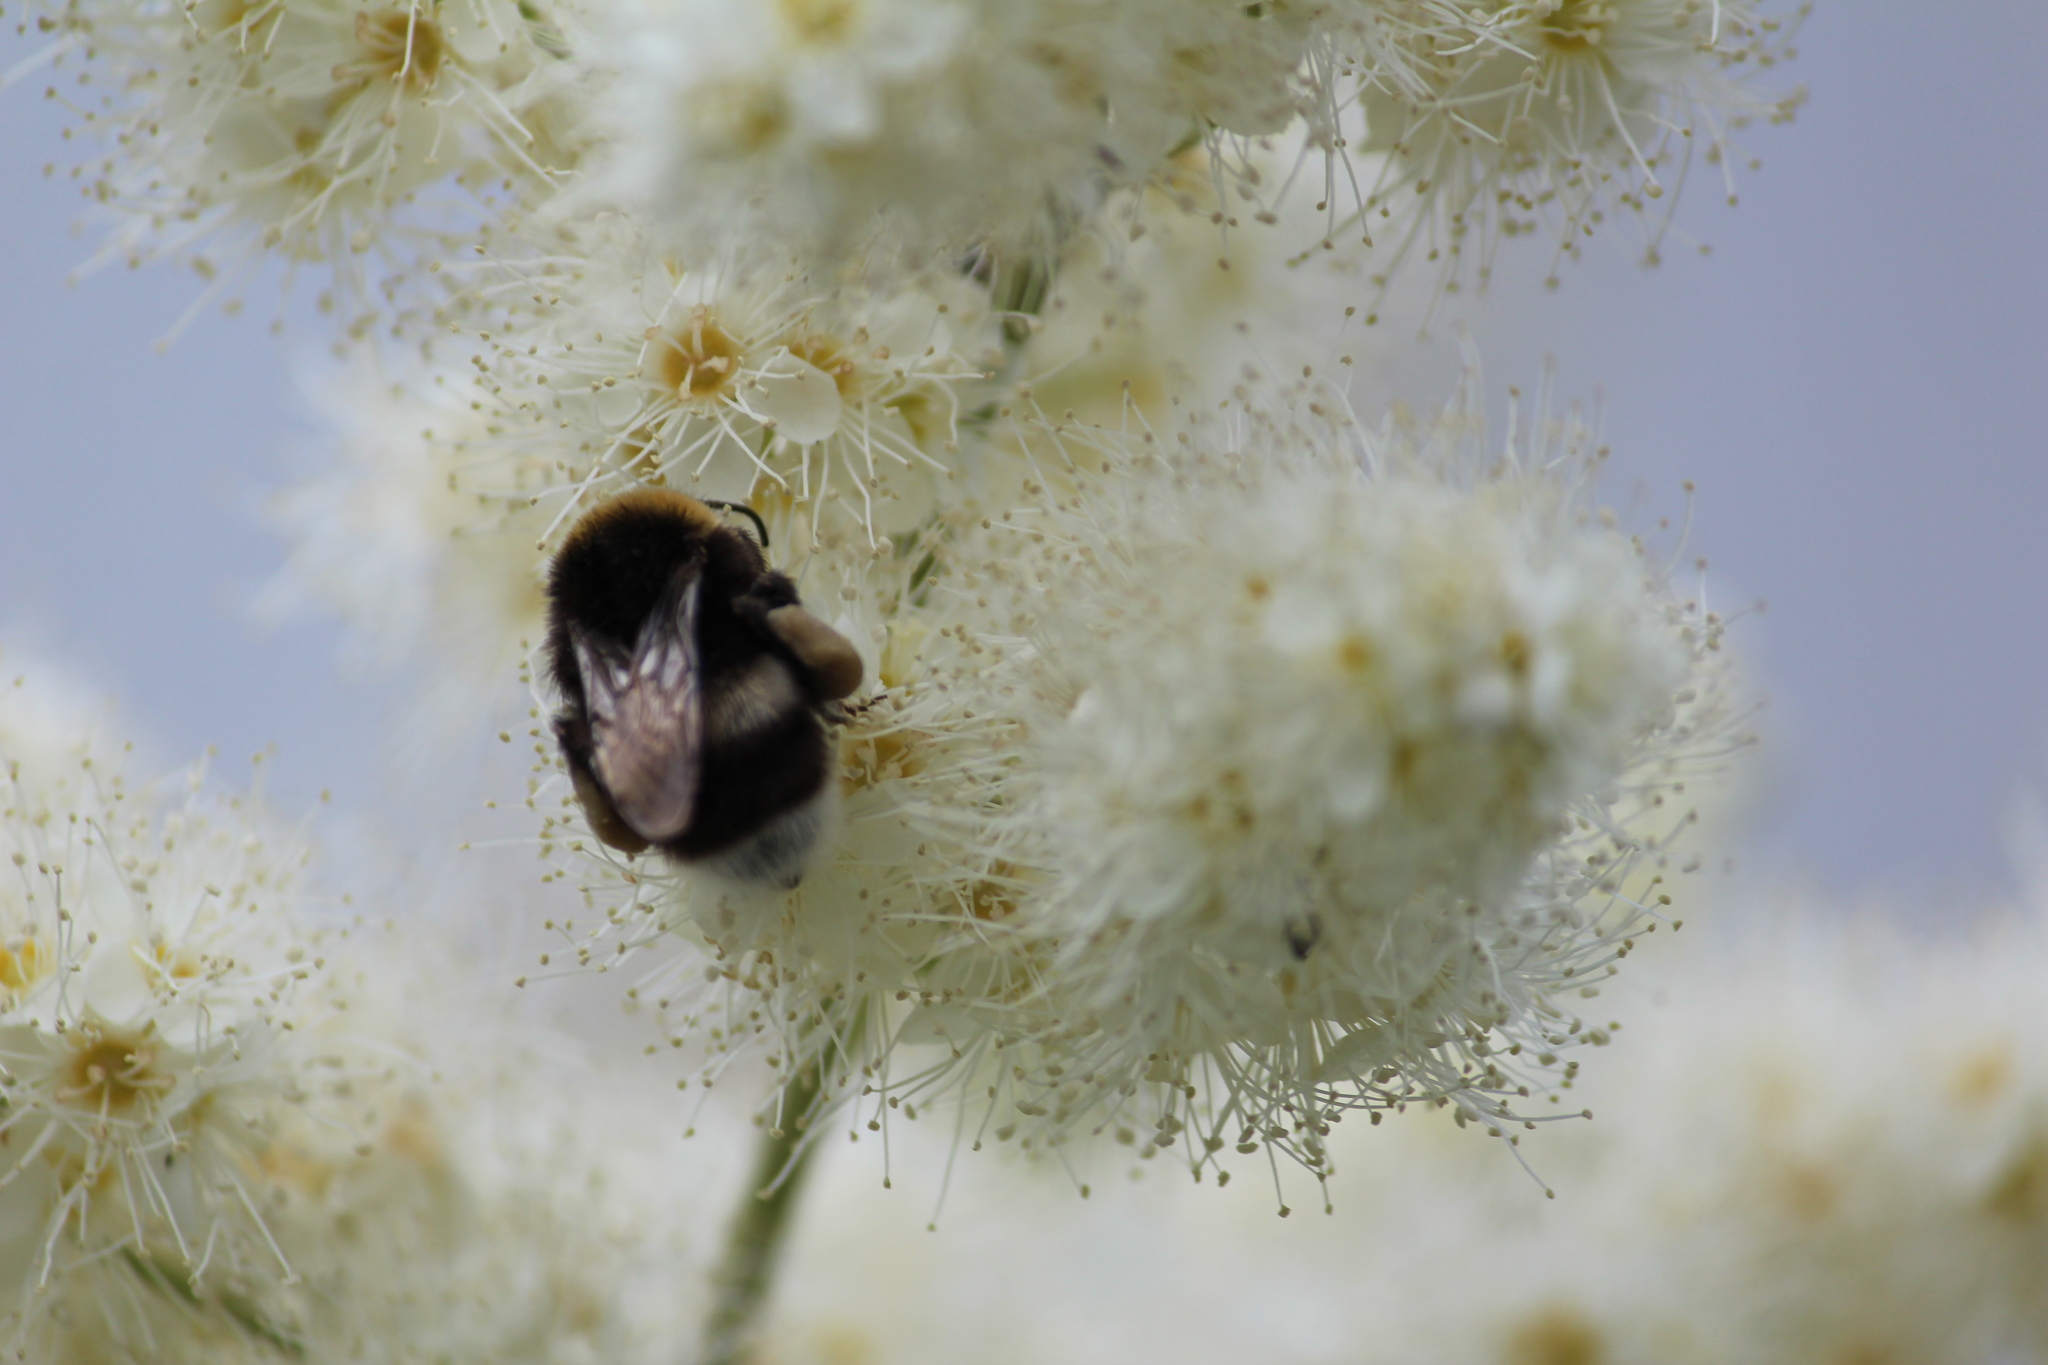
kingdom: Animalia
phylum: Arthropoda
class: Insecta
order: Hymenoptera
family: Apidae
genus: Bombus
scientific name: Bombus
